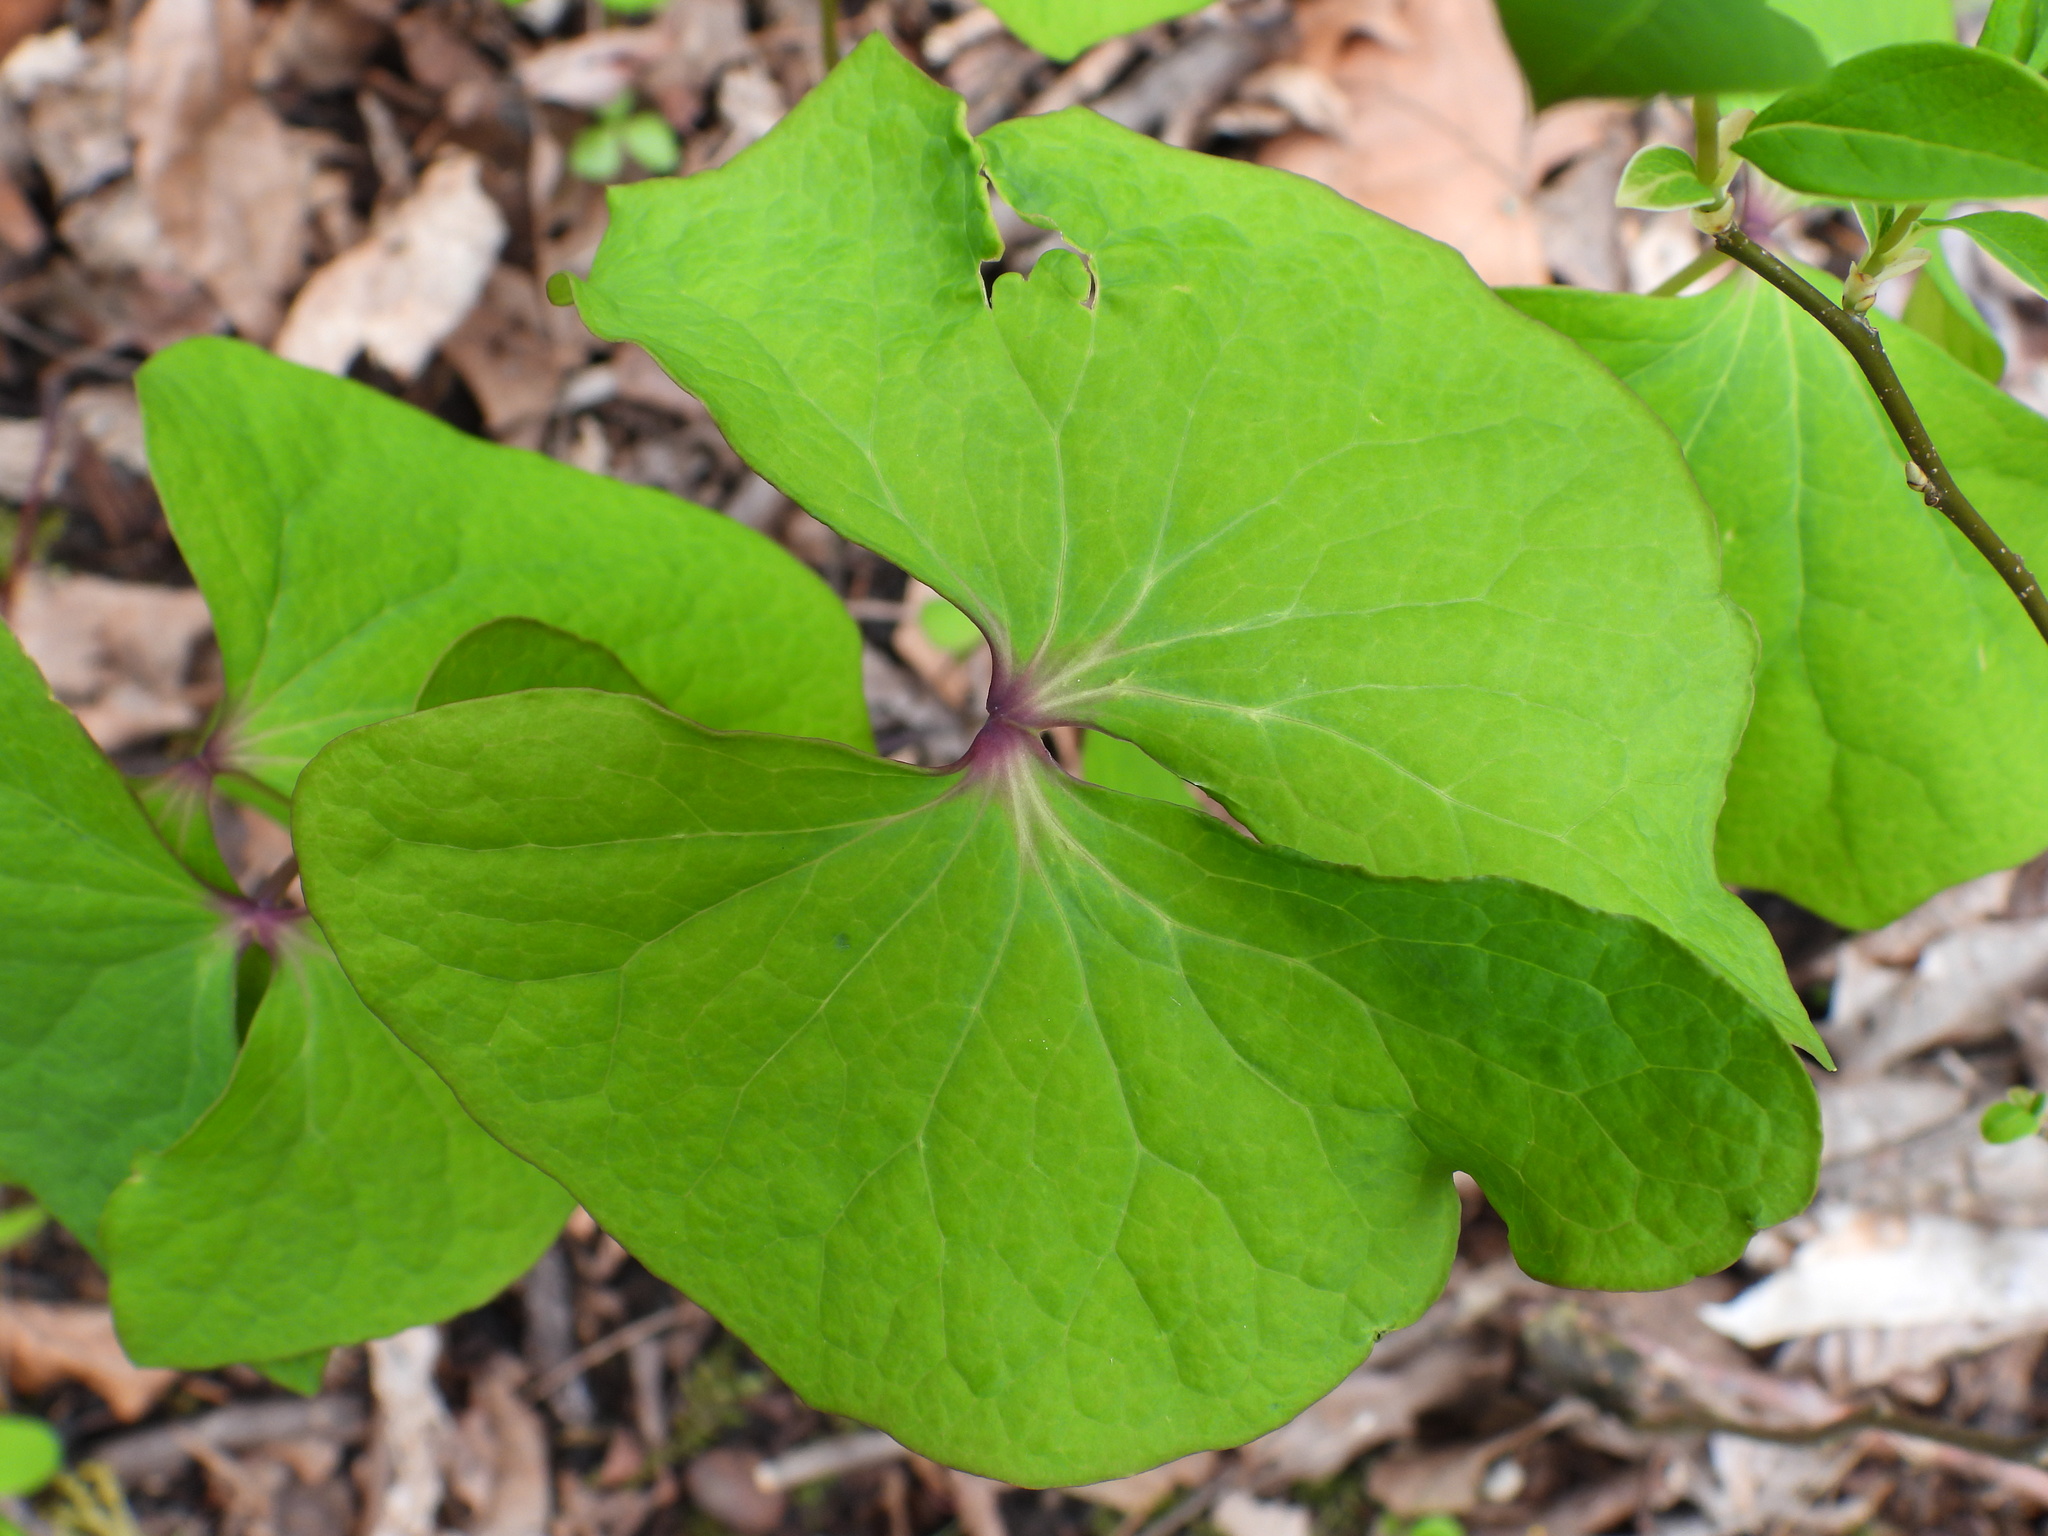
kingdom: Plantae
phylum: Tracheophyta
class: Magnoliopsida
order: Ranunculales
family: Berberidaceae
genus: Jeffersonia
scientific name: Jeffersonia diphylla
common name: Rheumatism-root
